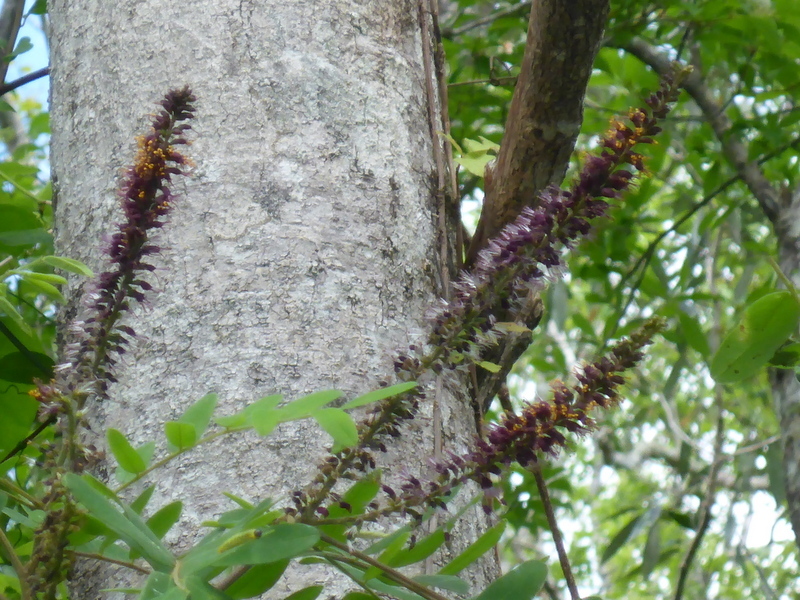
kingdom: Plantae
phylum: Tracheophyta
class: Magnoliopsida
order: Fabales
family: Fabaceae
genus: Amorpha
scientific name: Amorpha fruticosa
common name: False indigo
